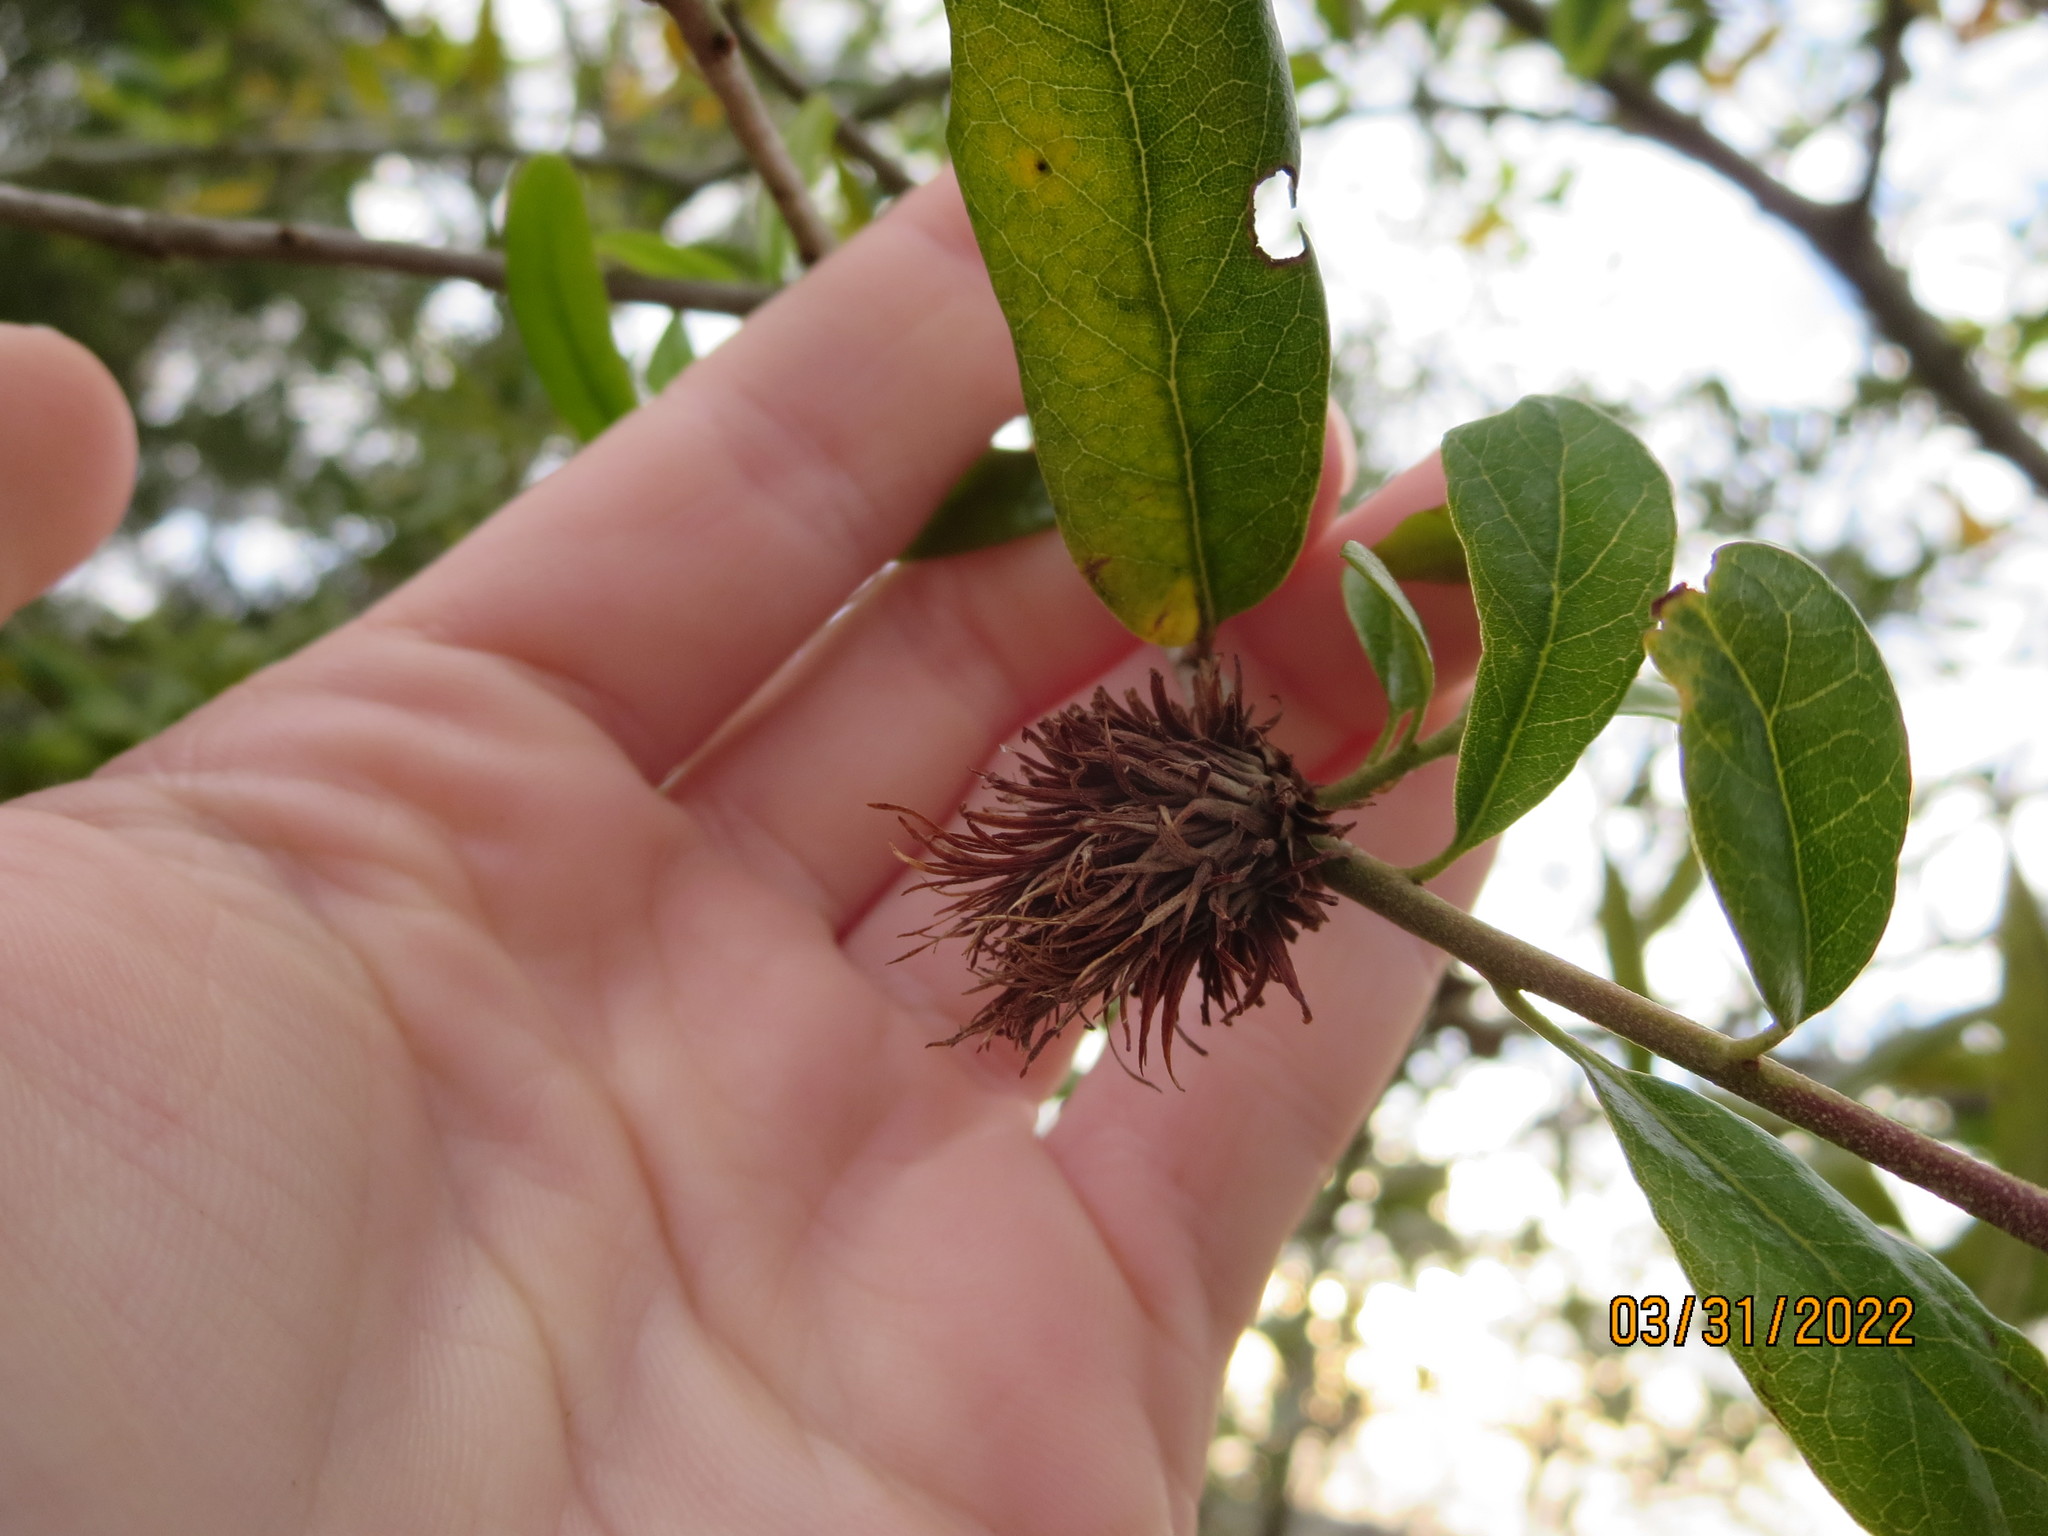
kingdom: Animalia
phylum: Arthropoda
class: Insecta
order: Hymenoptera
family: Cynipidae
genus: Andricus
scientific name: Andricus quercusfoliatus
